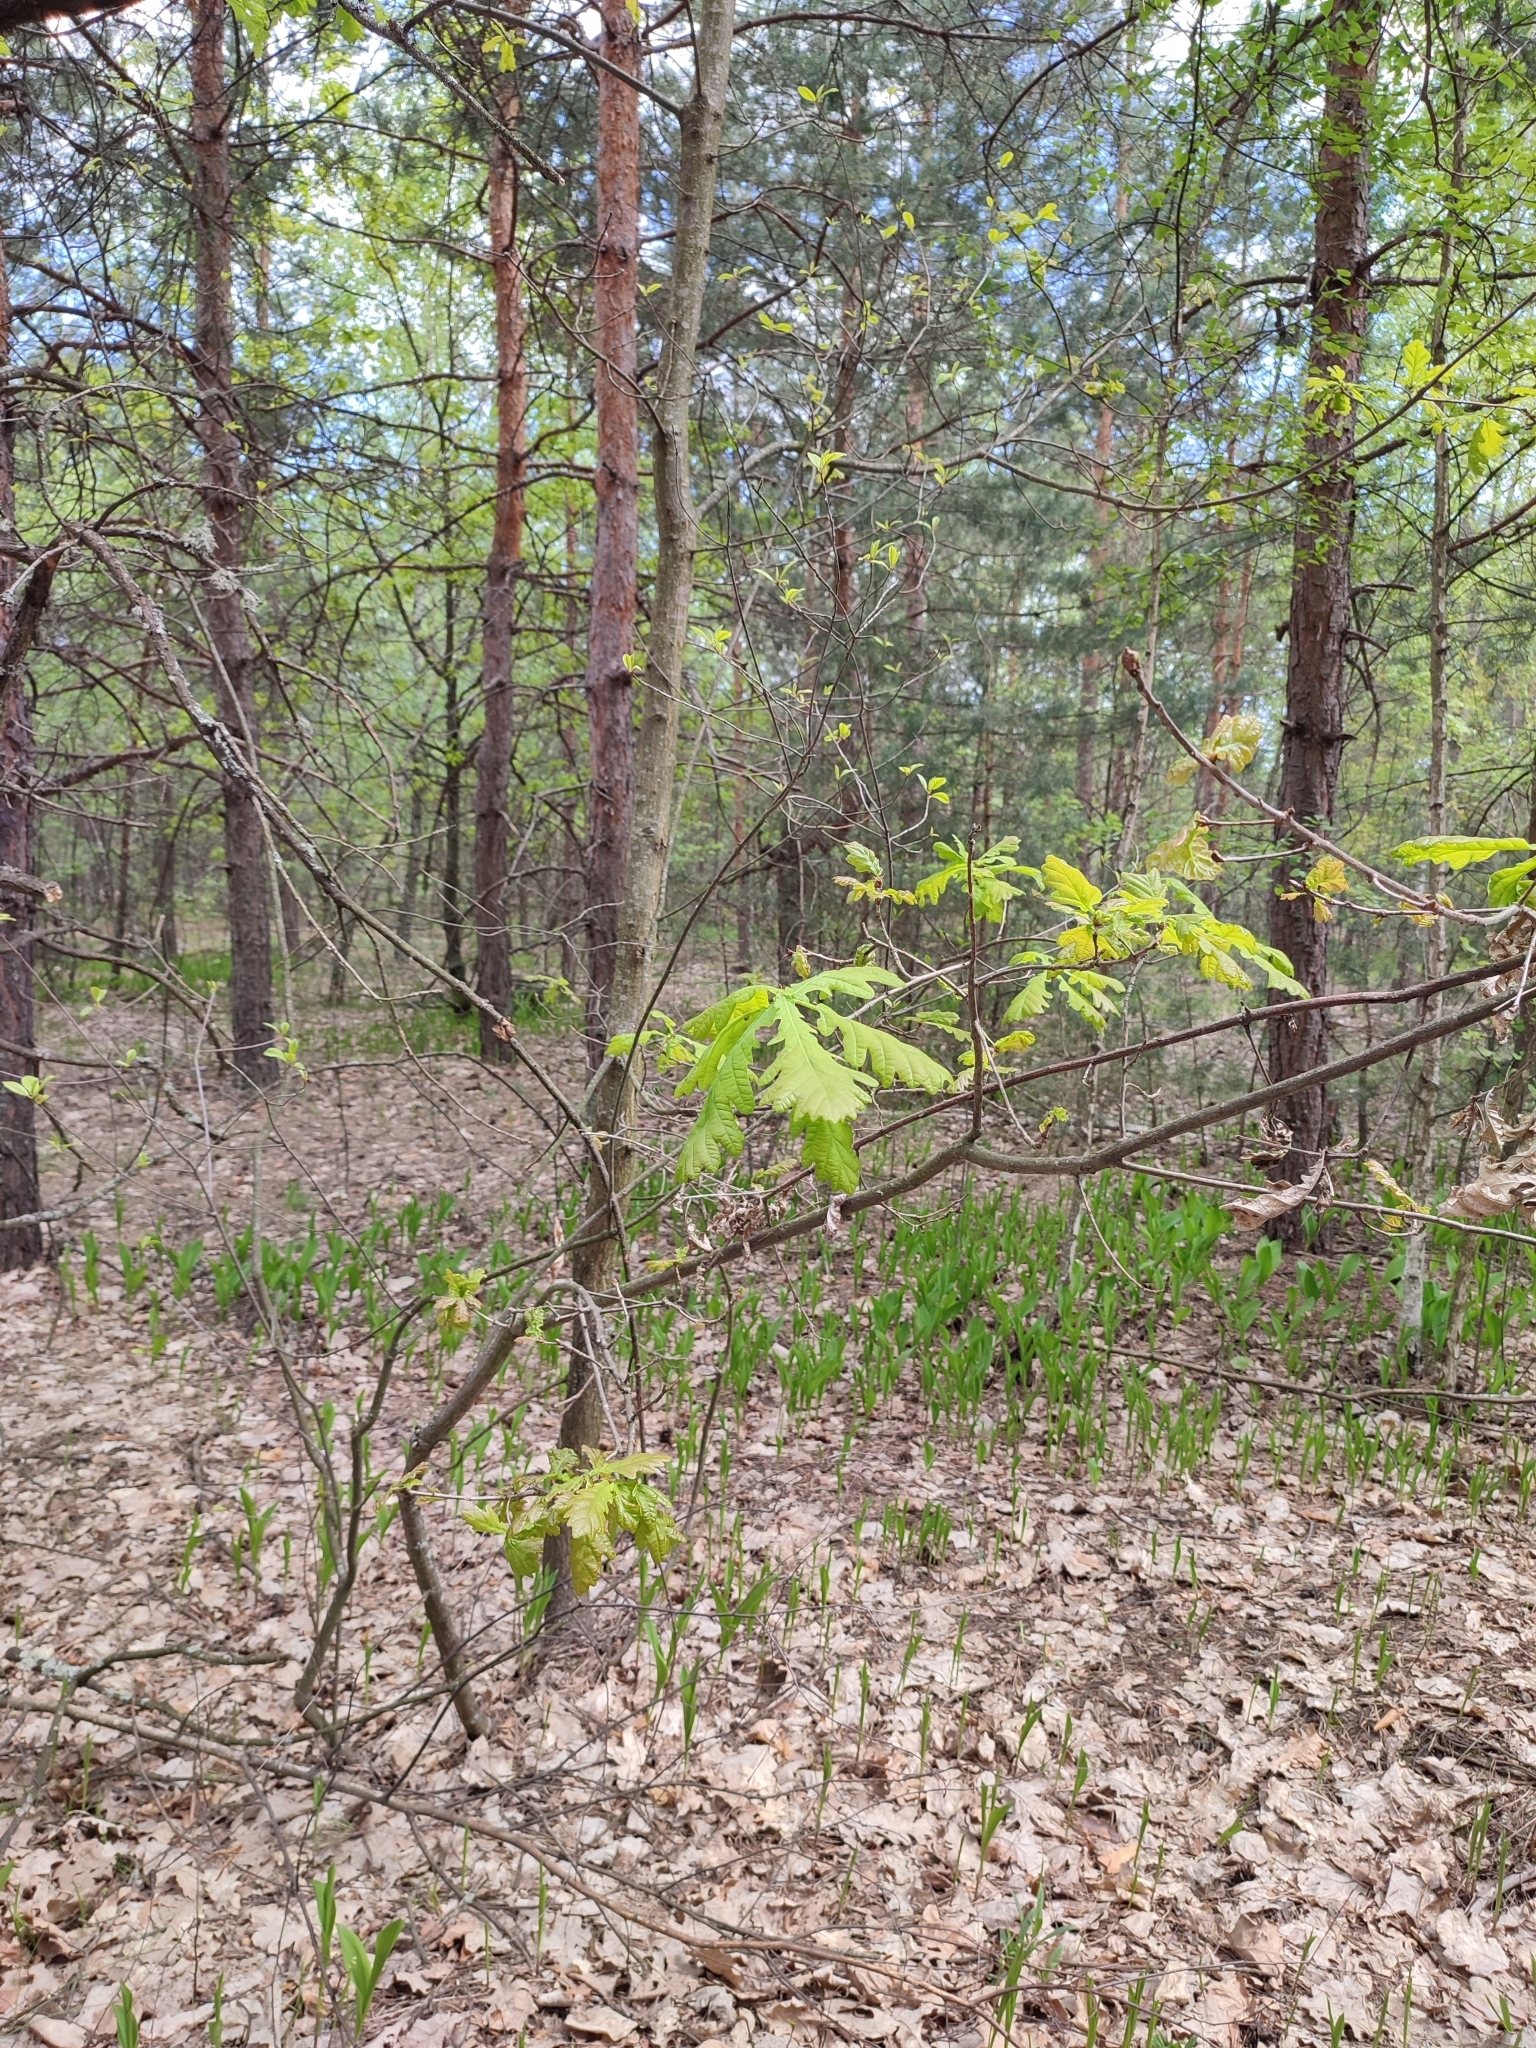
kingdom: Plantae
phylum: Tracheophyta
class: Magnoliopsida
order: Fagales
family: Fagaceae
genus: Quercus
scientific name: Quercus robur
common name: Pedunculate oak
